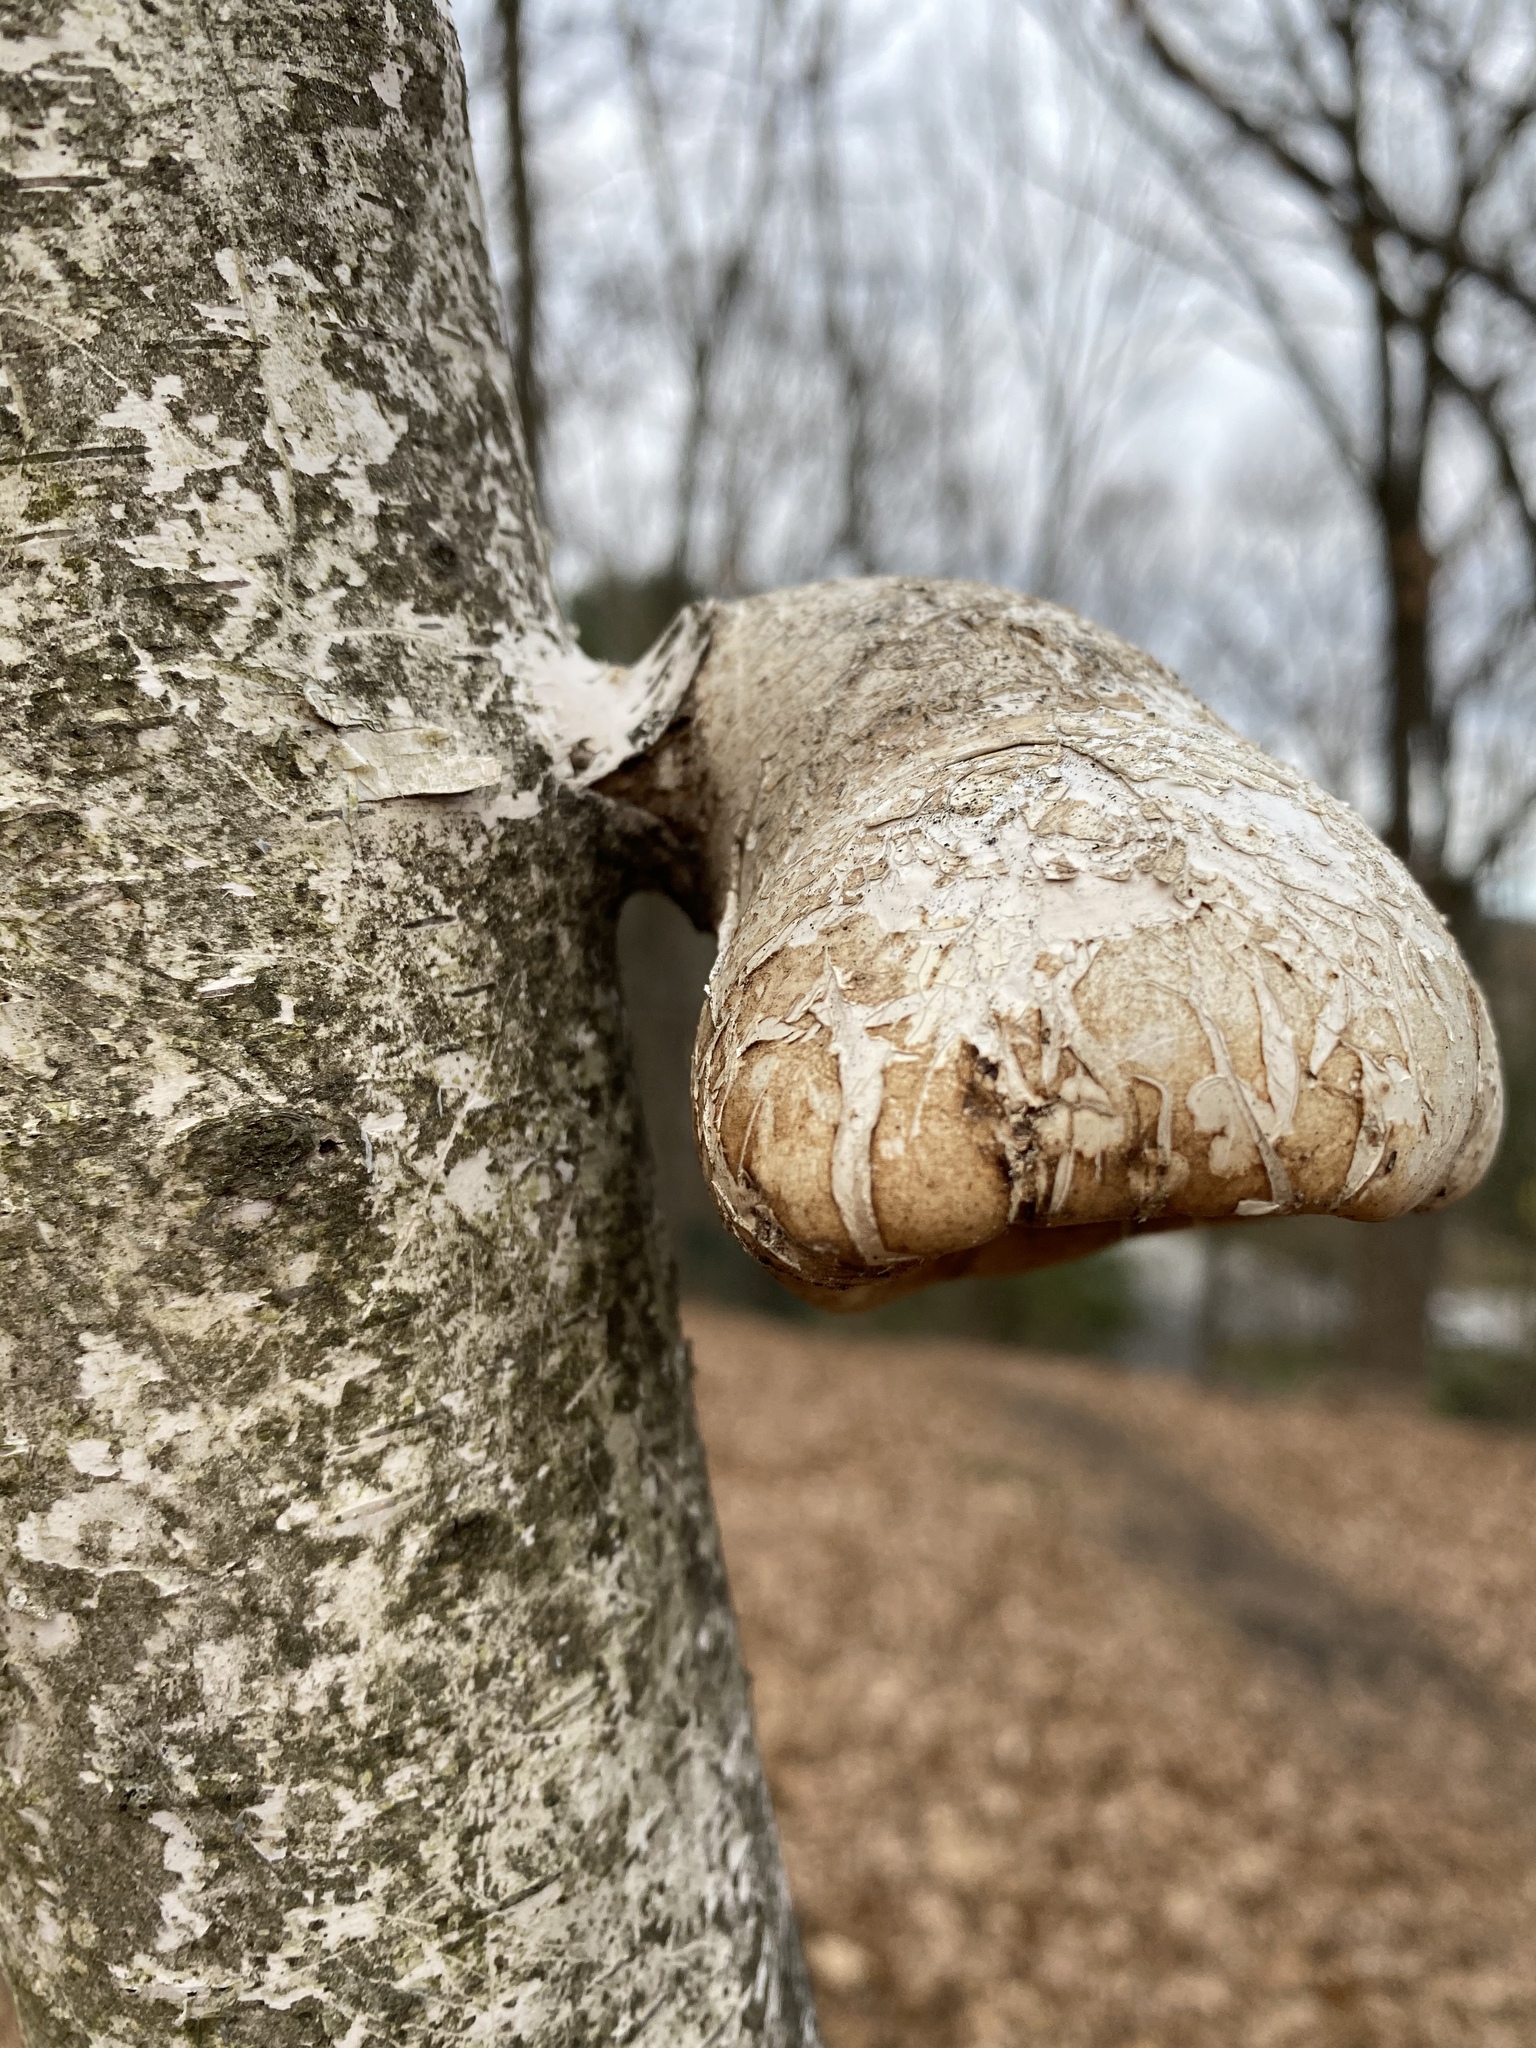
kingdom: Fungi
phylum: Basidiomycota
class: Agaricomycetes
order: Polyporales
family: Fomitopsidaceae
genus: Fomitopsis
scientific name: Fomitopsis betulina
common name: Birch polypore
